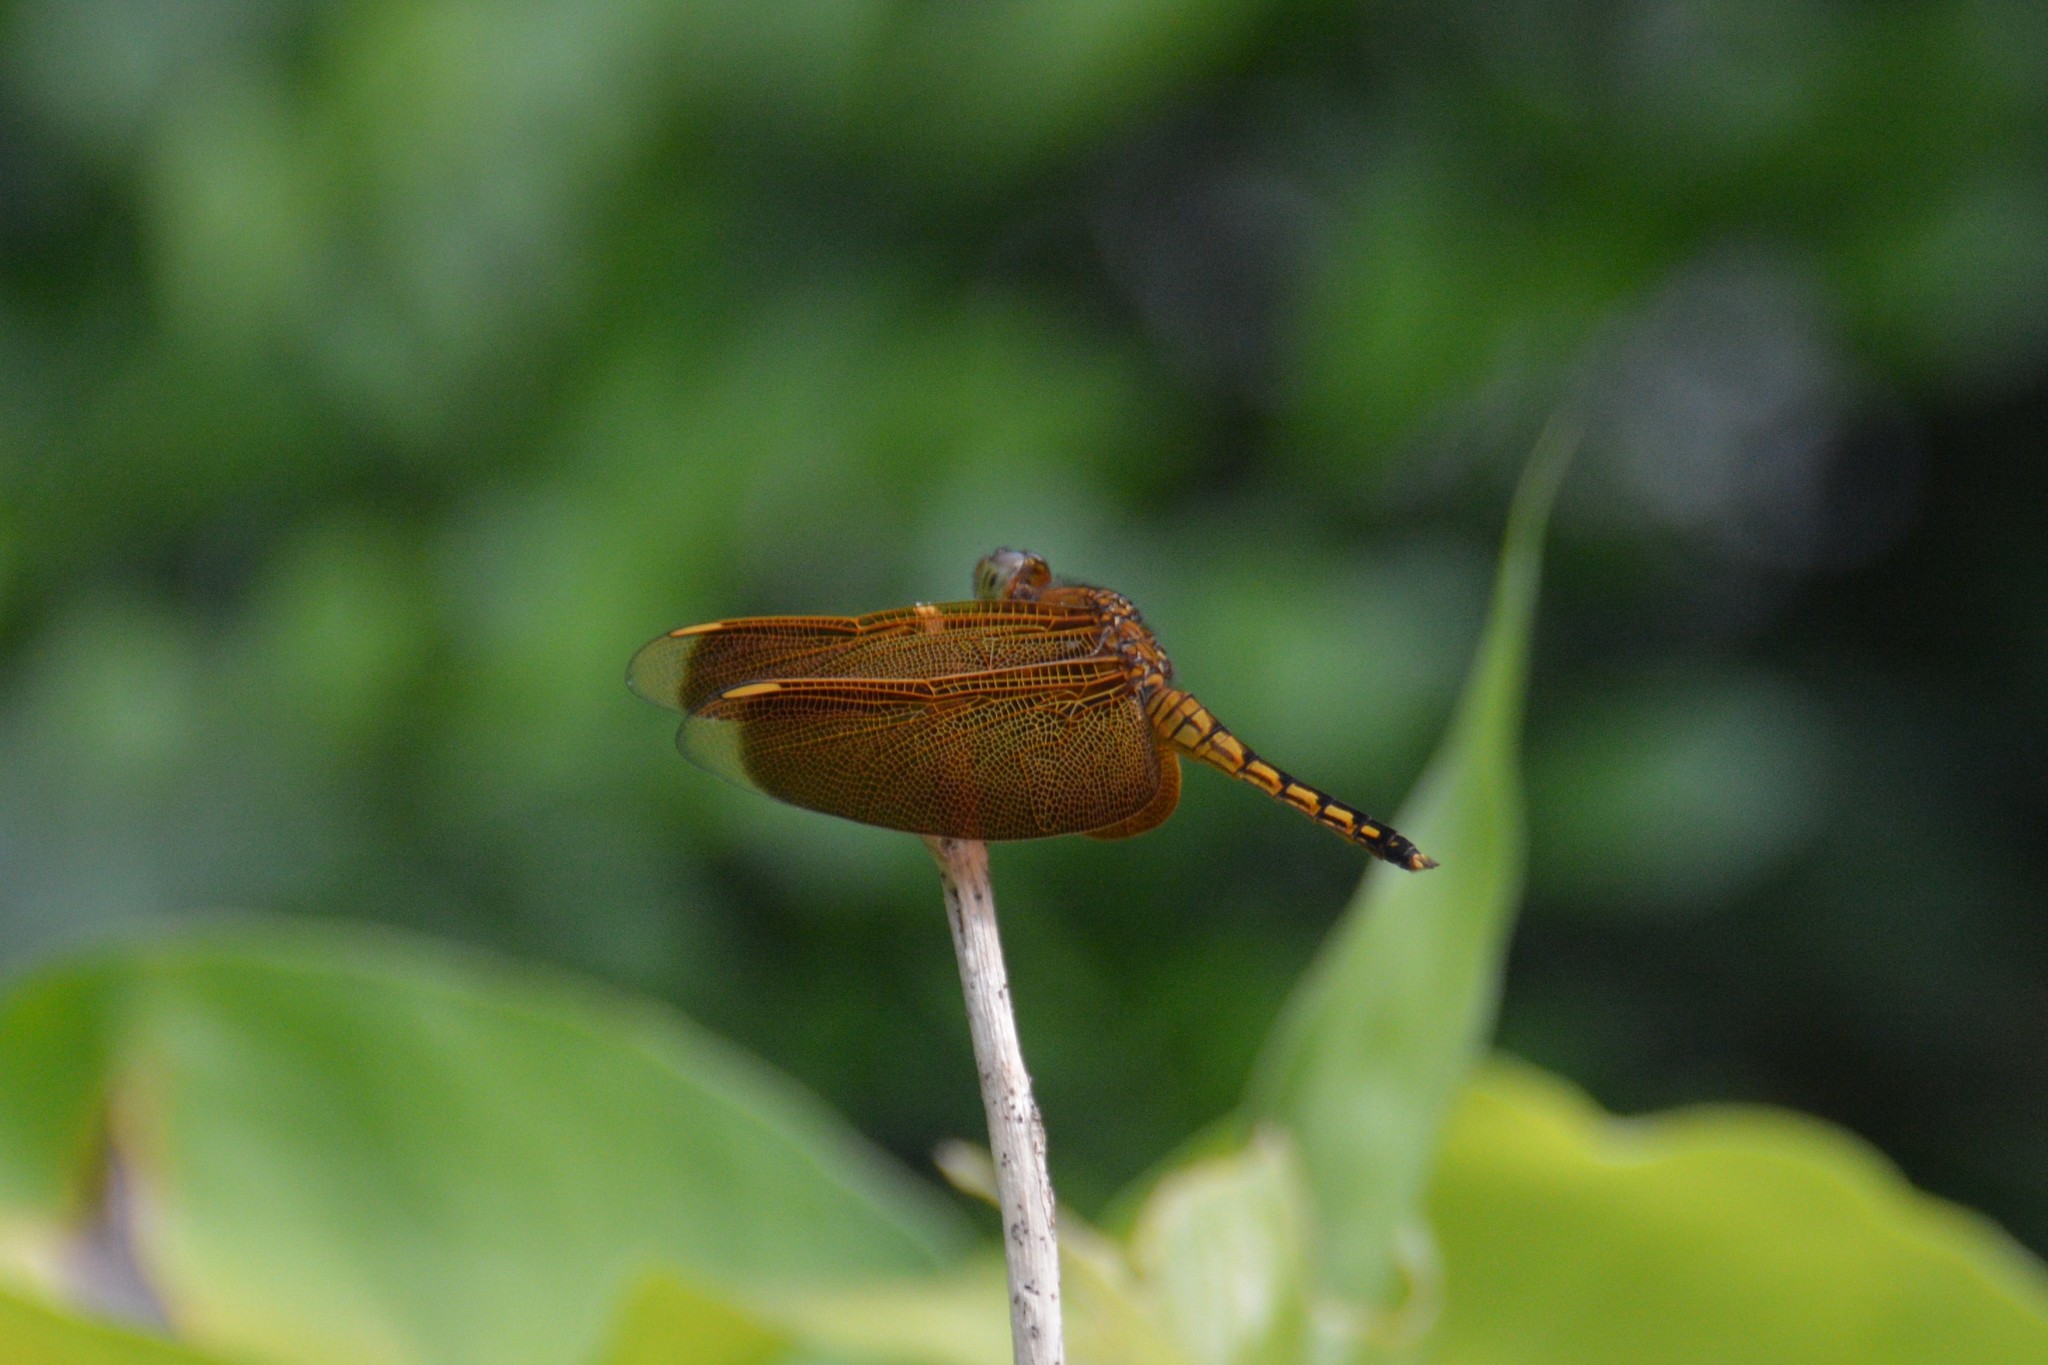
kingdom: Animalia
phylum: Arthropoda
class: Insecta
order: Odonata
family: Libellulidae
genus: Neurothemis
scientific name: Neurothemis taiwanensis
